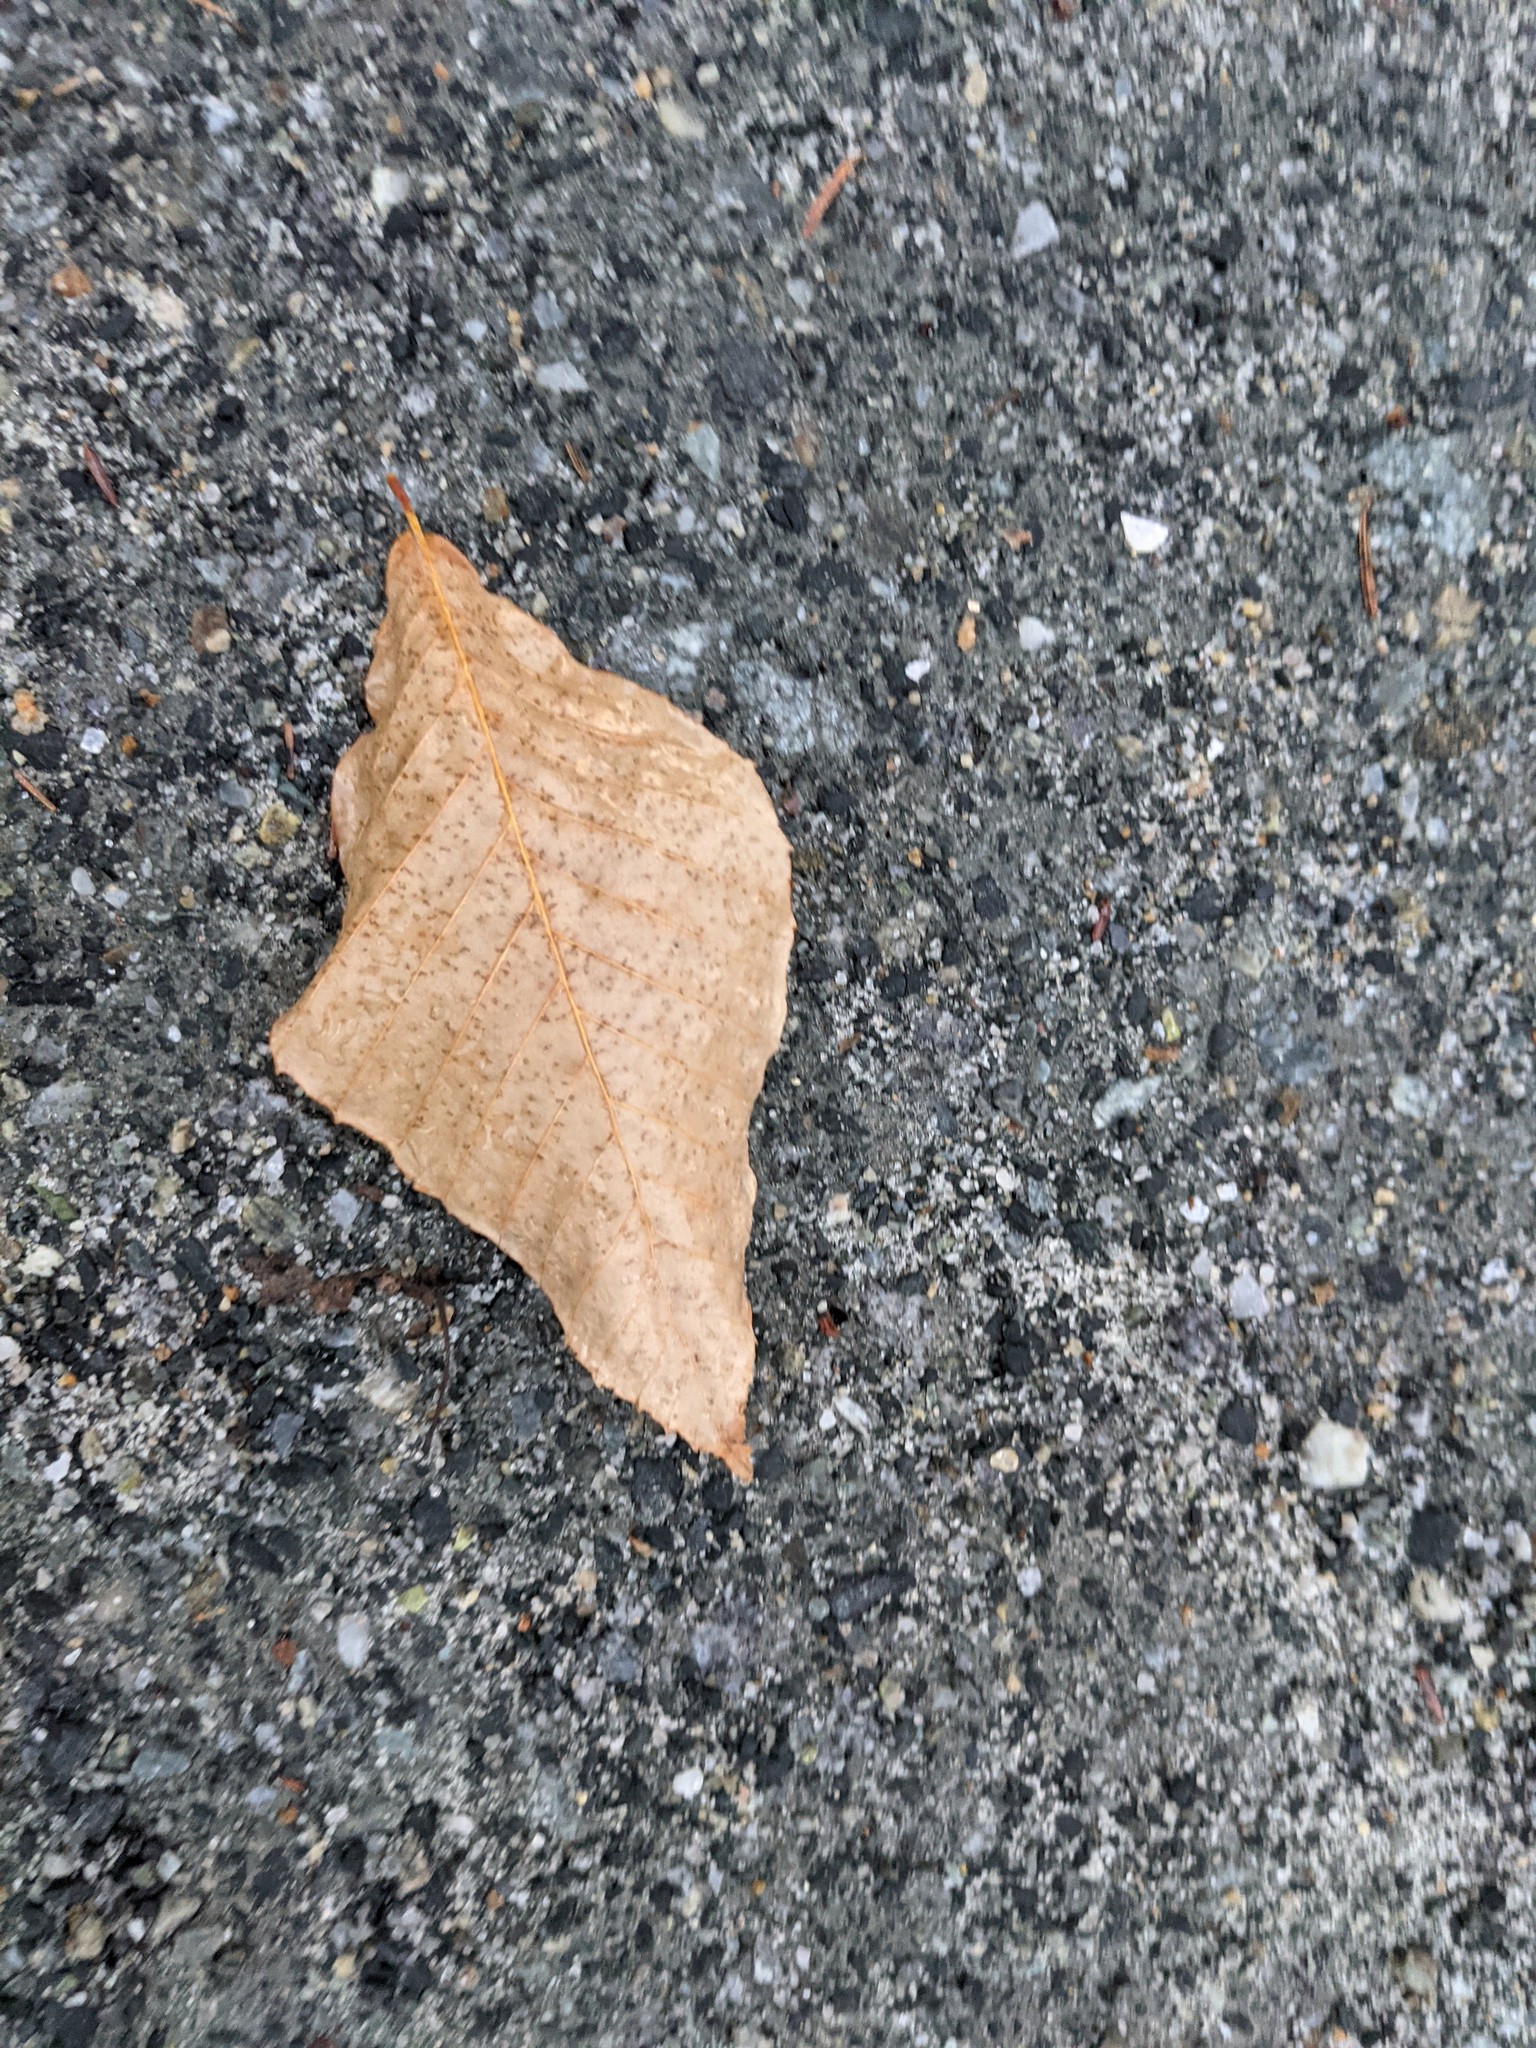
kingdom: Plantae
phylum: Tracheophyta
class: Magnoliopsida
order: Fagales
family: Fagaceae
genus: Fagus
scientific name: Fagus grandifolia
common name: American beech
